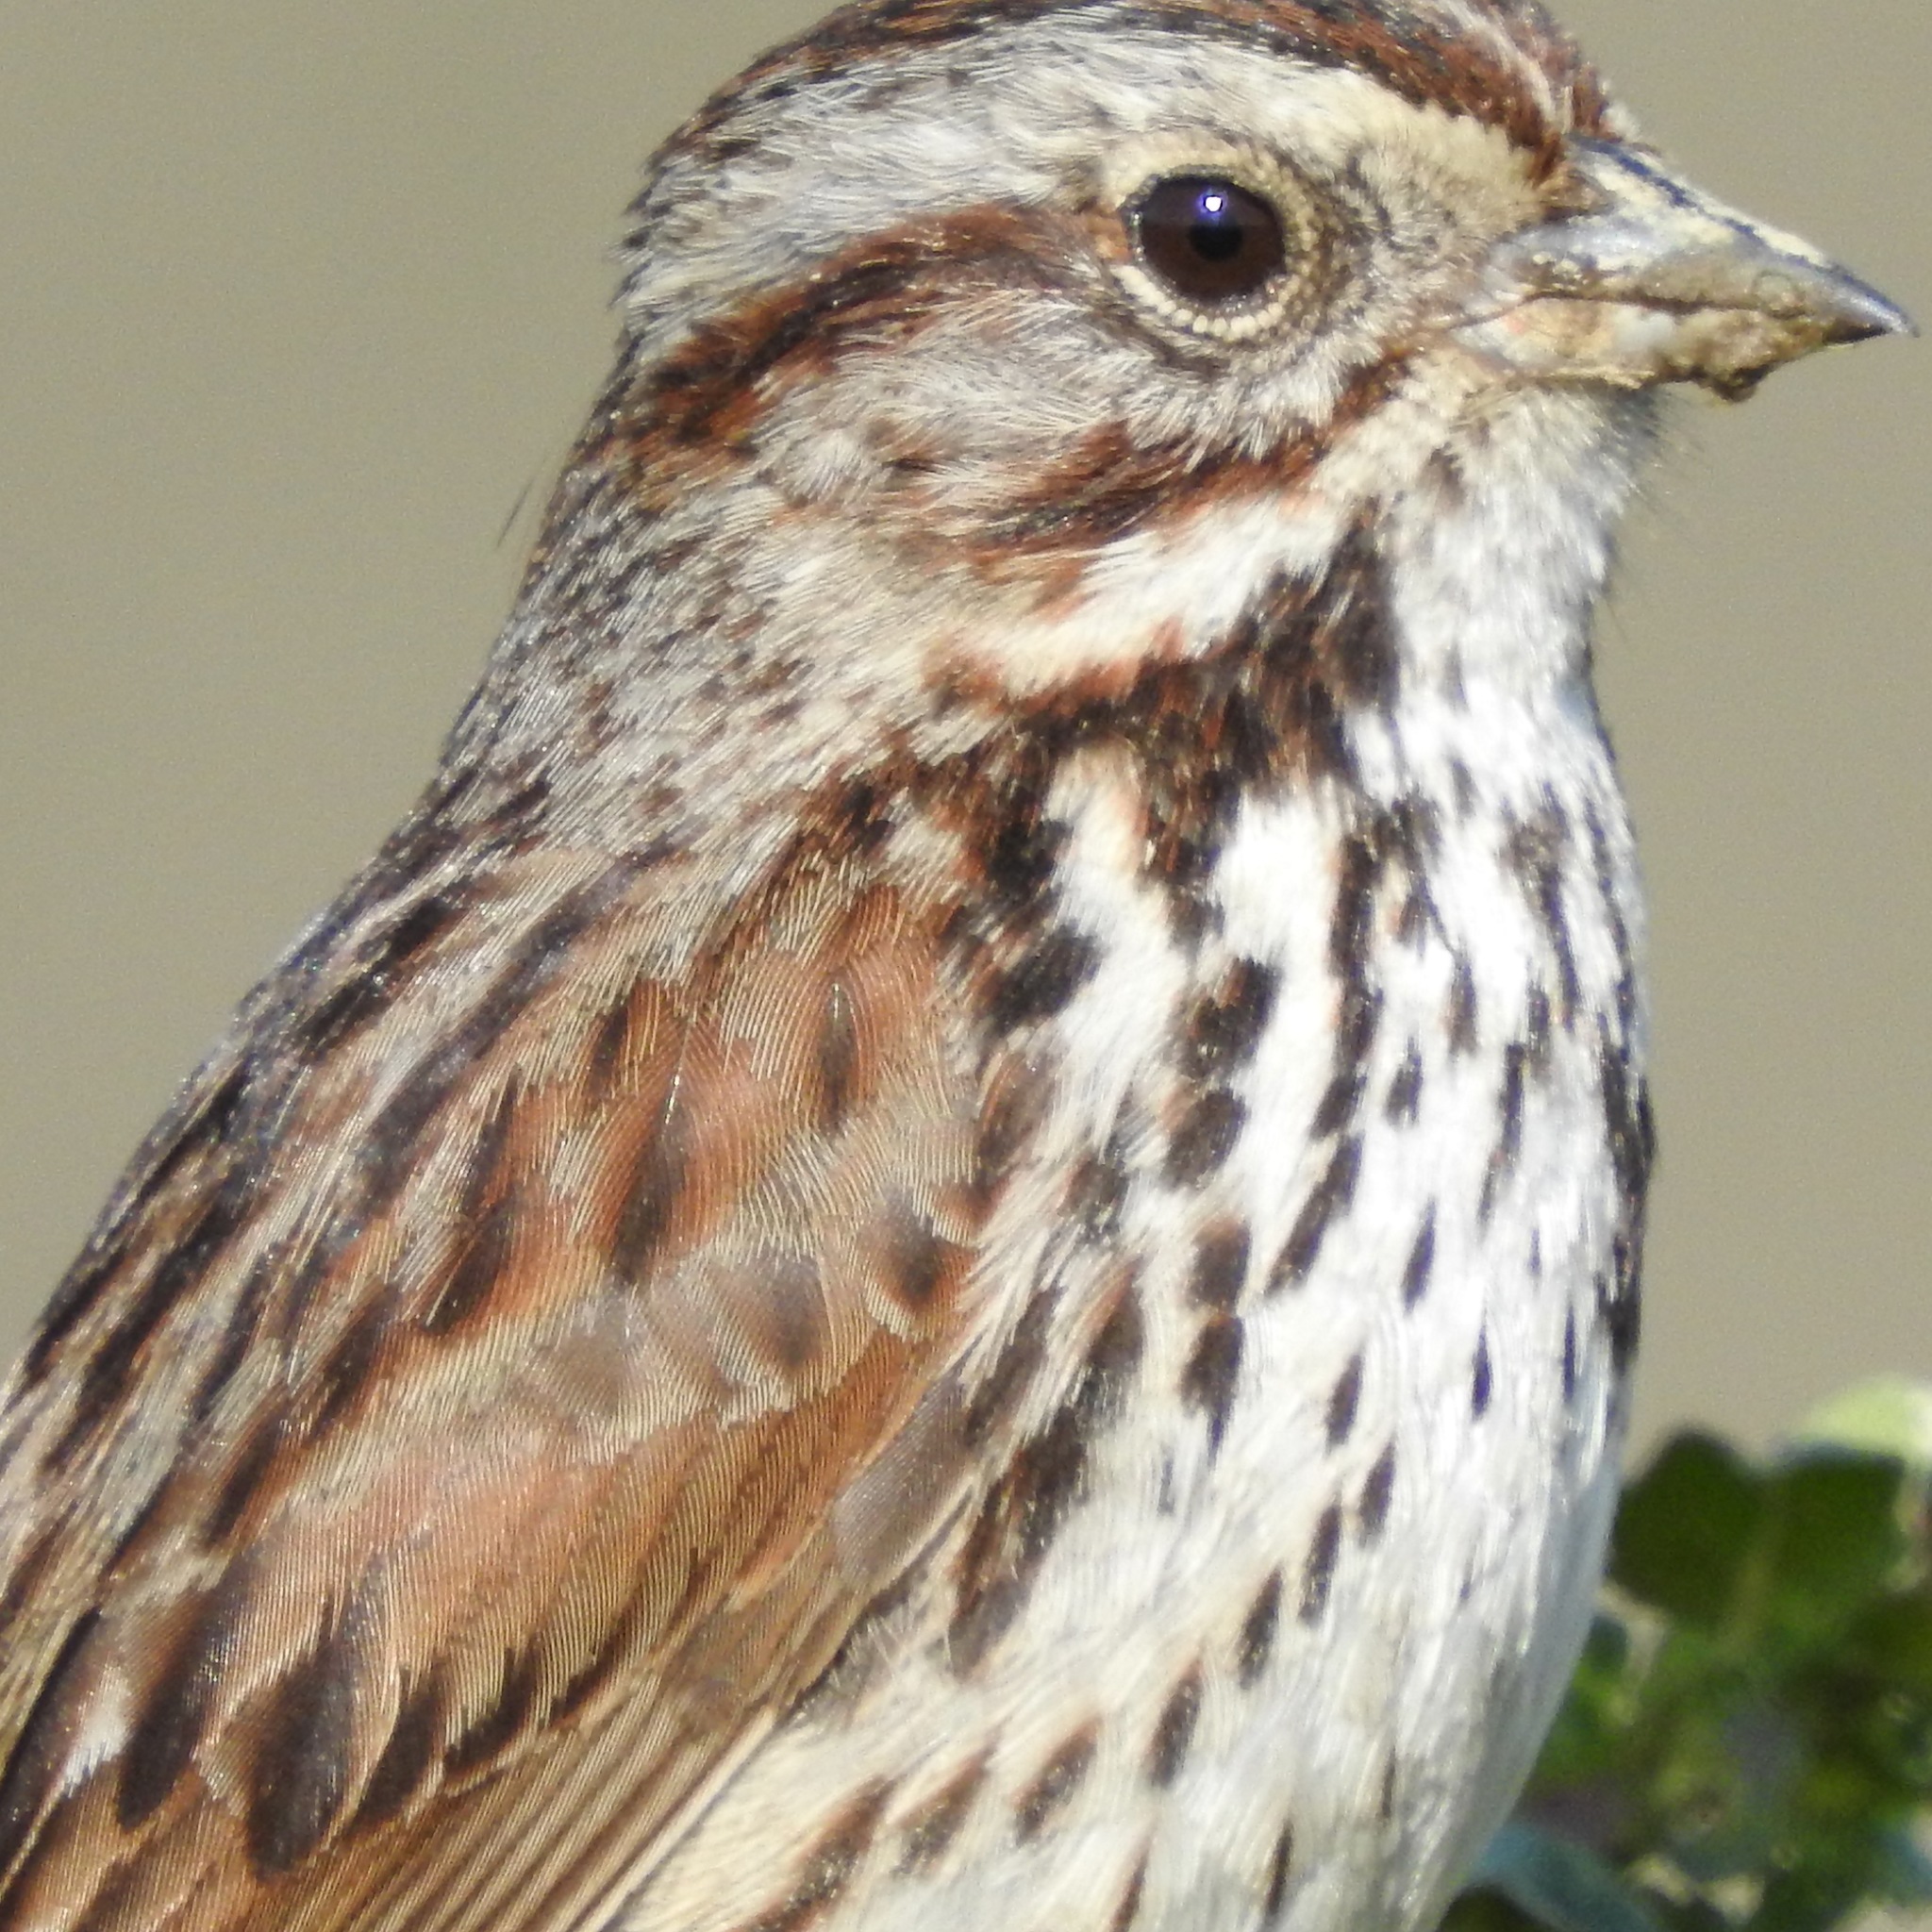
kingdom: Animalia
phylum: Chordata
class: Aves
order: Passeriformes
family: Passerellidae
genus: Melospiza
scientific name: Melospiza melodia
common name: Song sparrow
